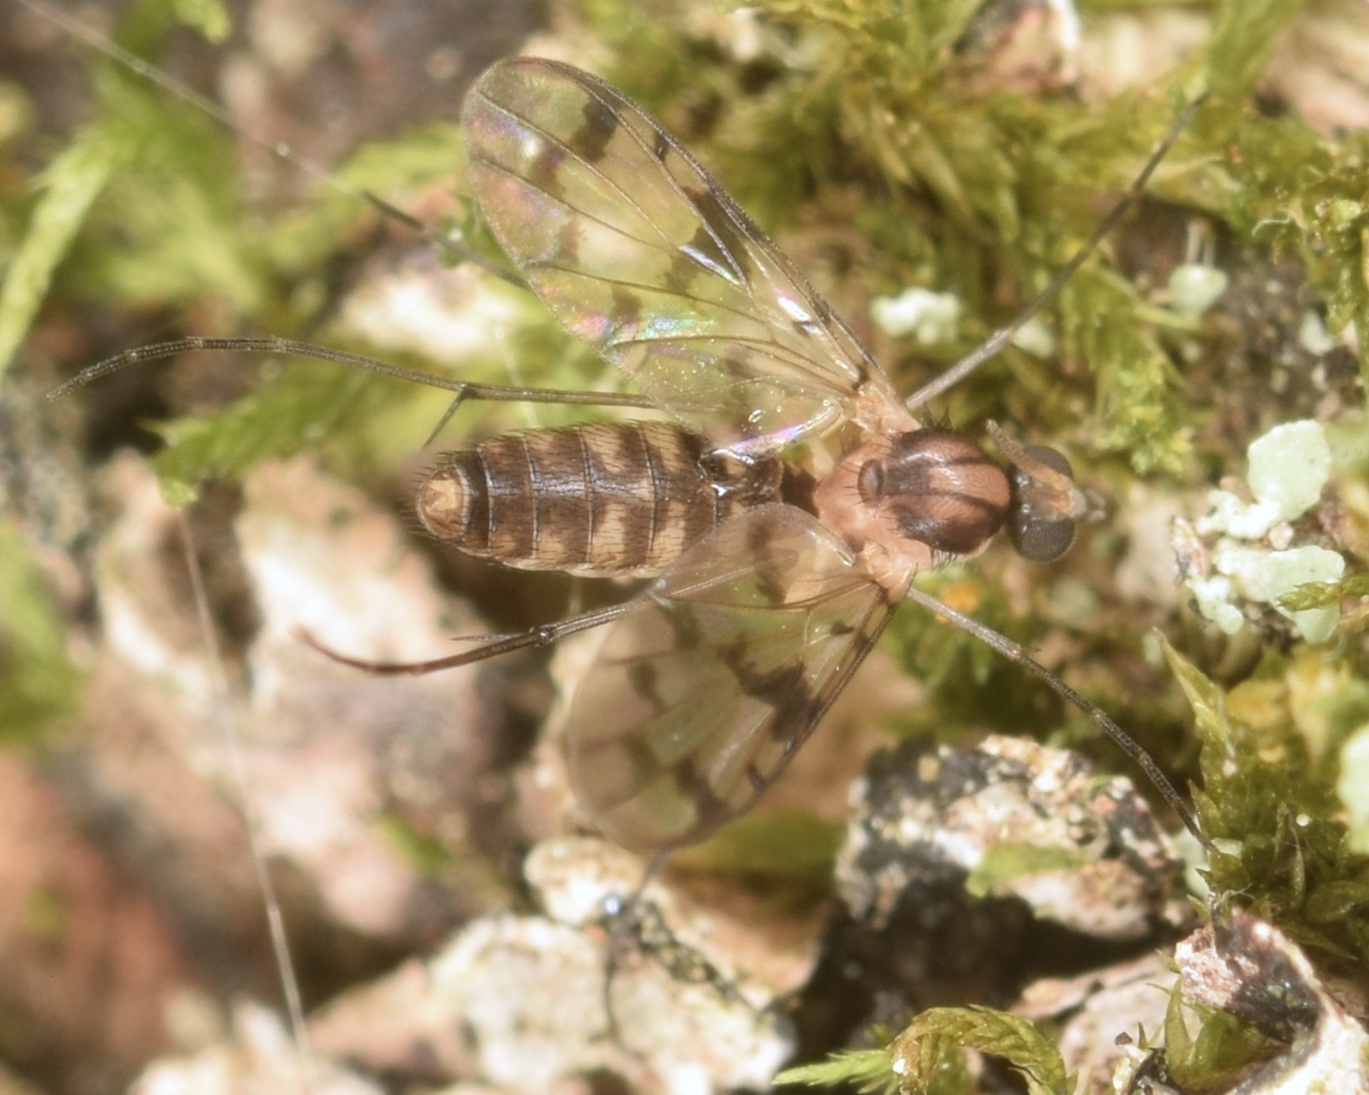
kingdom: Animalia
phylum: Arthropoda
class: Insecta
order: Diptera
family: Keroplatidae
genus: Proceroplatus
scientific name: Proceroplatus
